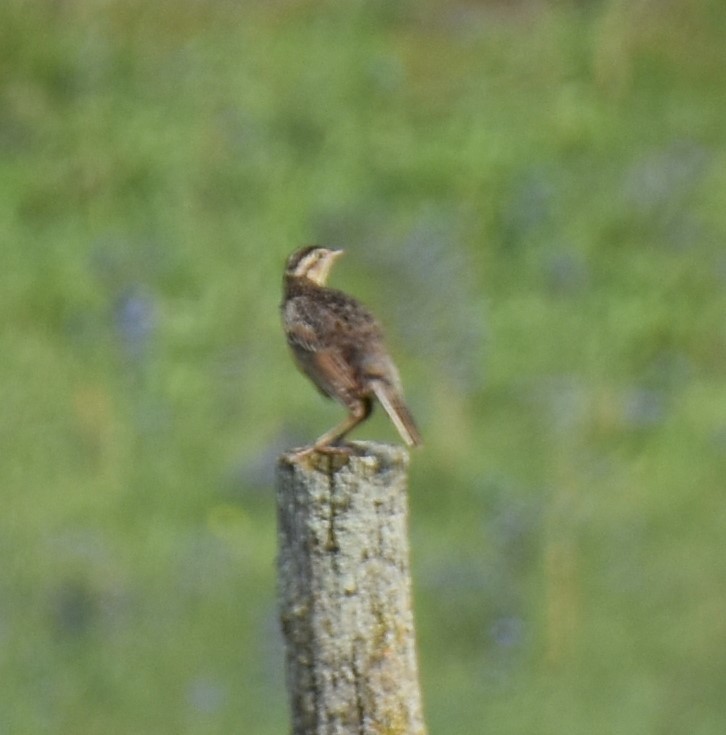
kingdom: Animalia
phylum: Chordata
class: Aves
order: Passeriformes
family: Icteridae
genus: Sturnella
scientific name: Sturnella magna
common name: Eastern meadowlark
